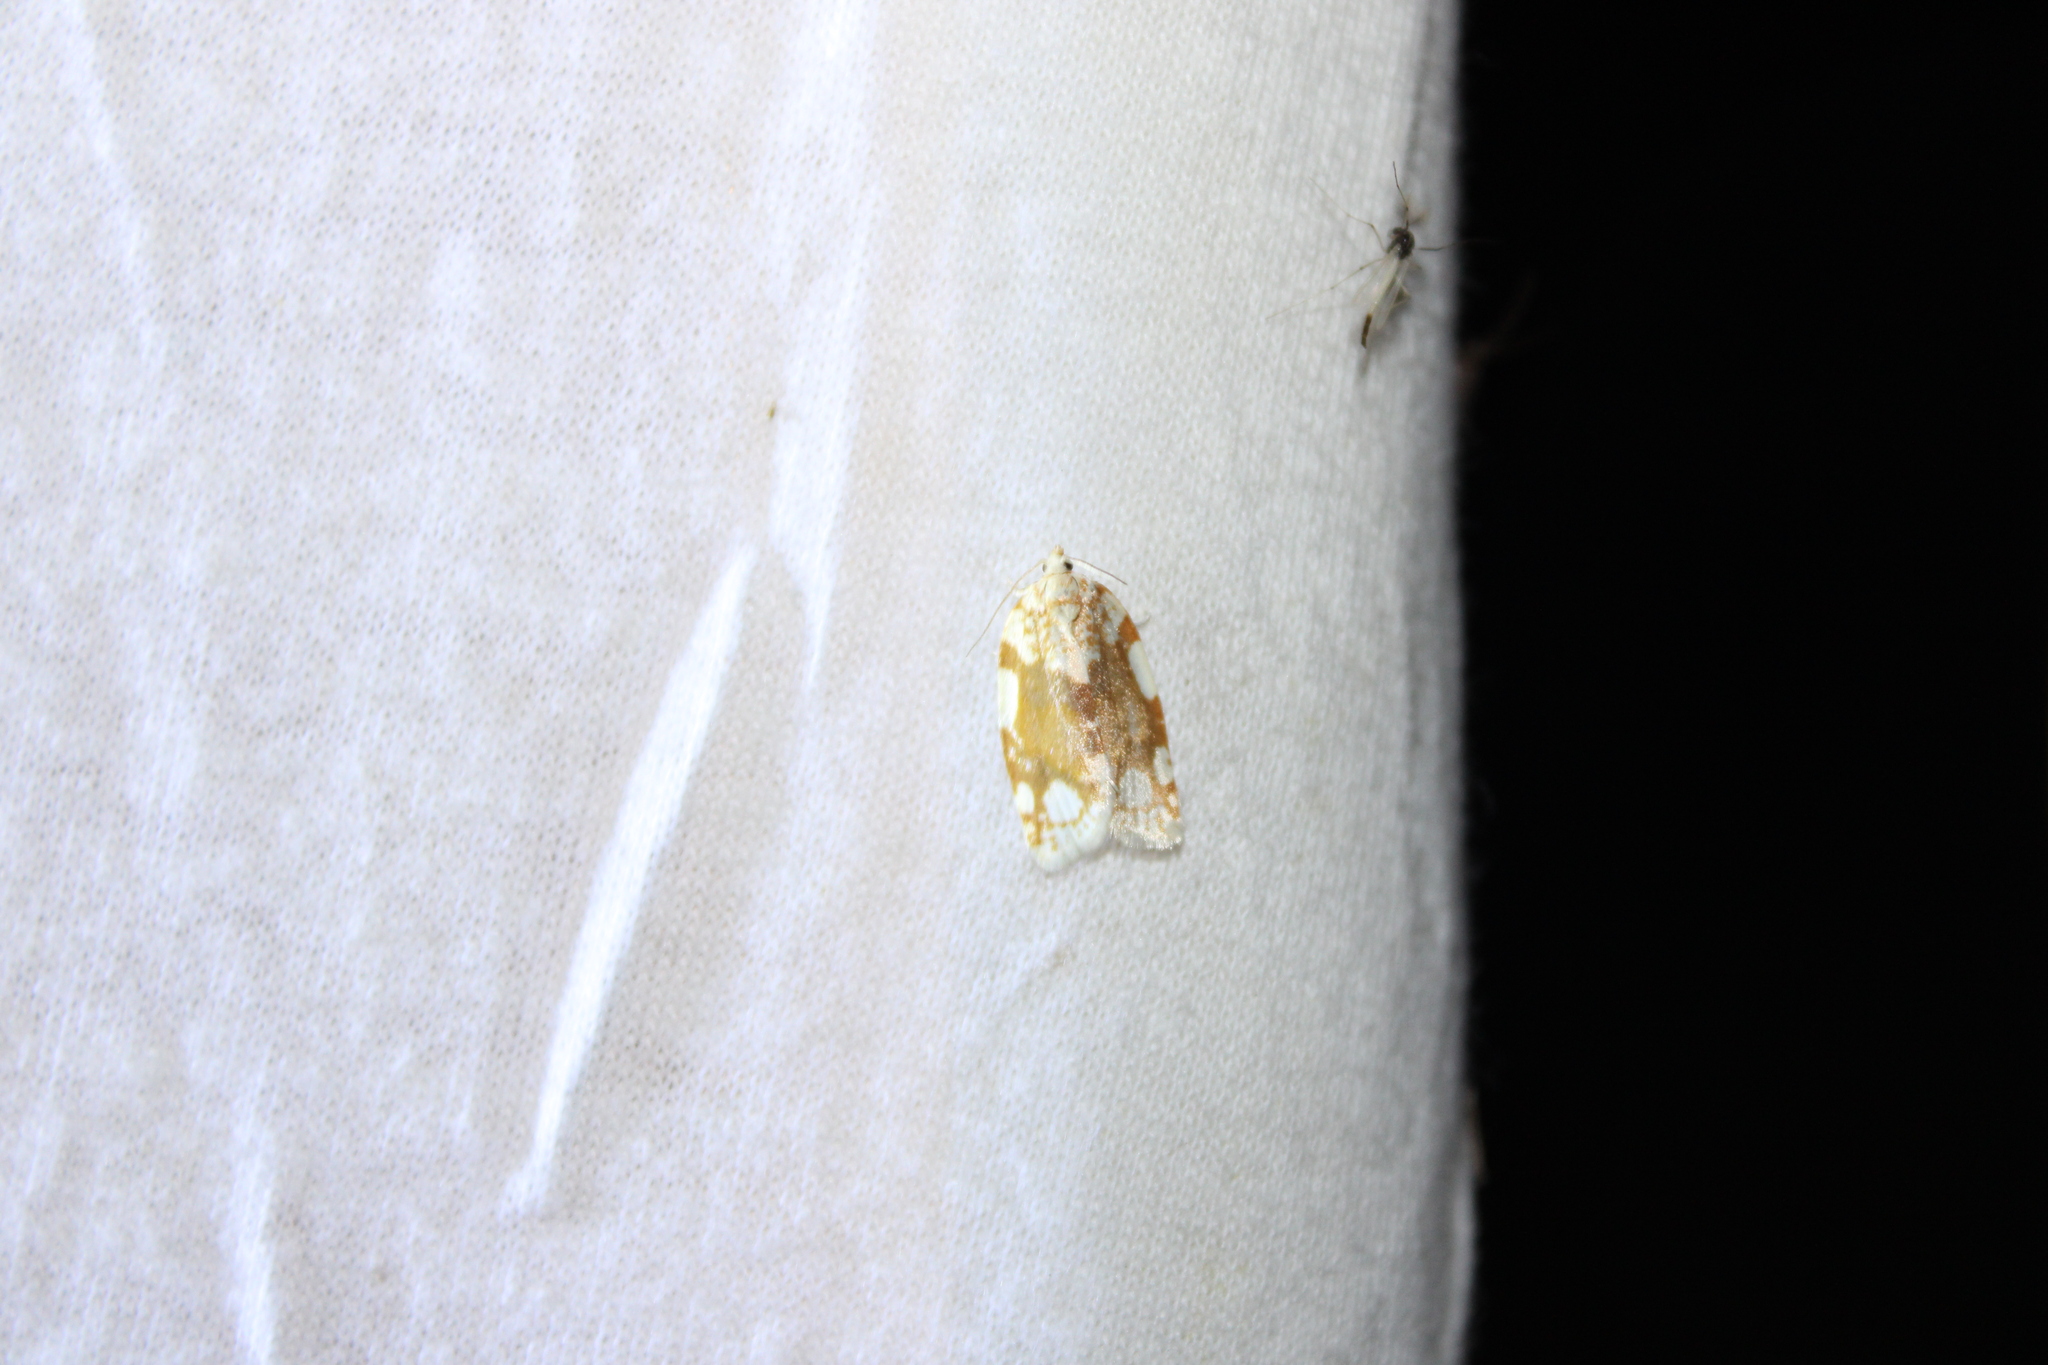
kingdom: Animalia
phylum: Arthropoda
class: Insecta
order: Lepidoptera
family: Tortricidae
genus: Argyrotaenia
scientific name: Argyrotaenia alisellana
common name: White-spotted leafroller moth
